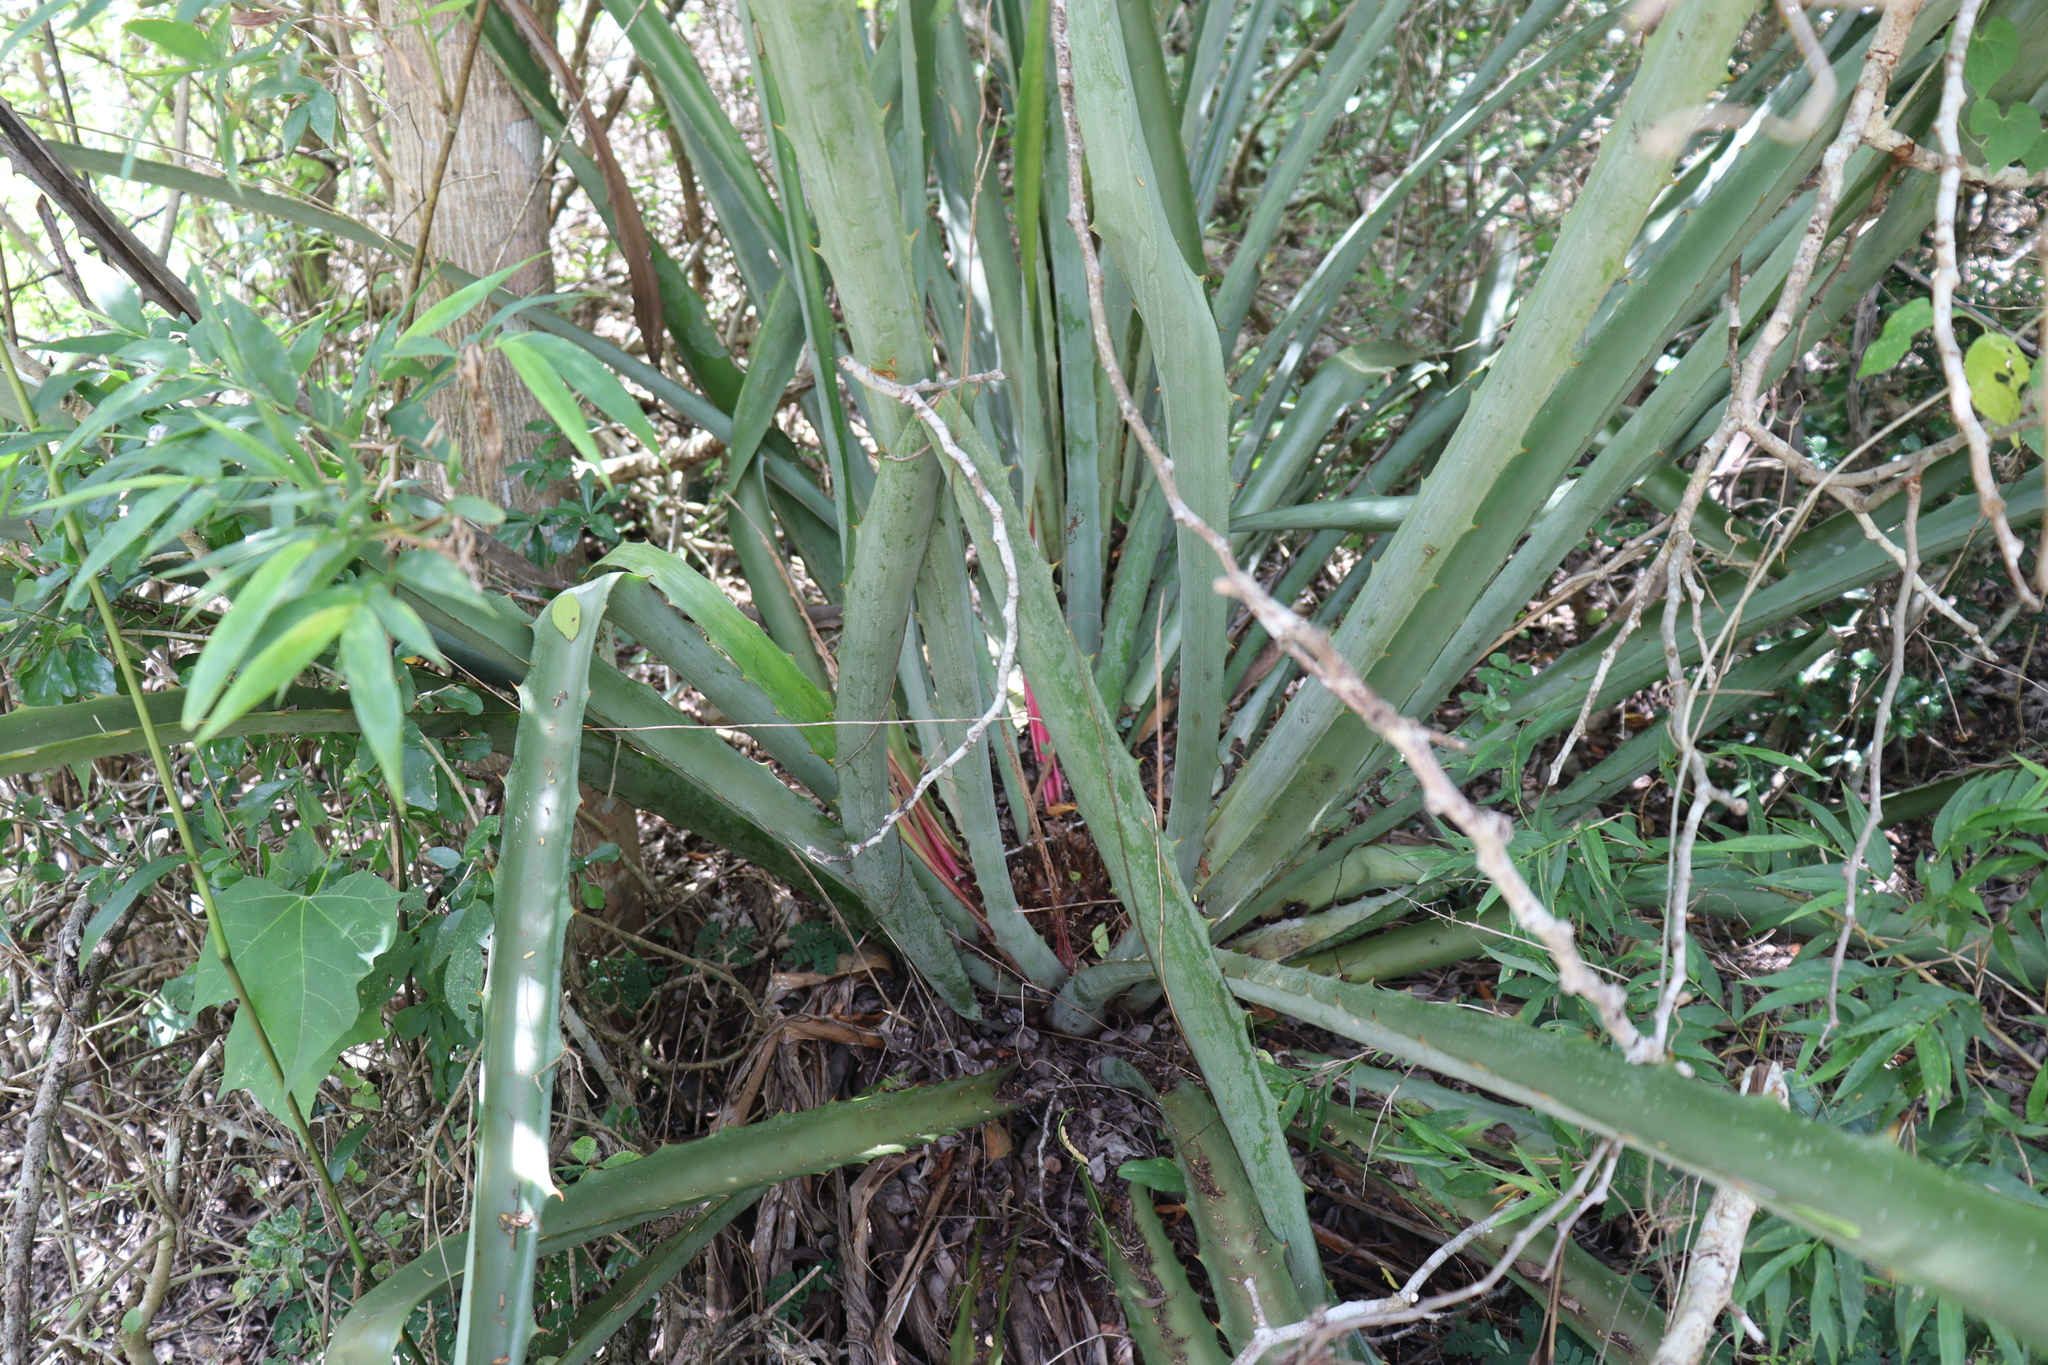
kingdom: Plantae
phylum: Tracheophyta
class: Liliopsida
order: Poales
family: Bromeliaceae
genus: Bromelia
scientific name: Bromelia karatas
